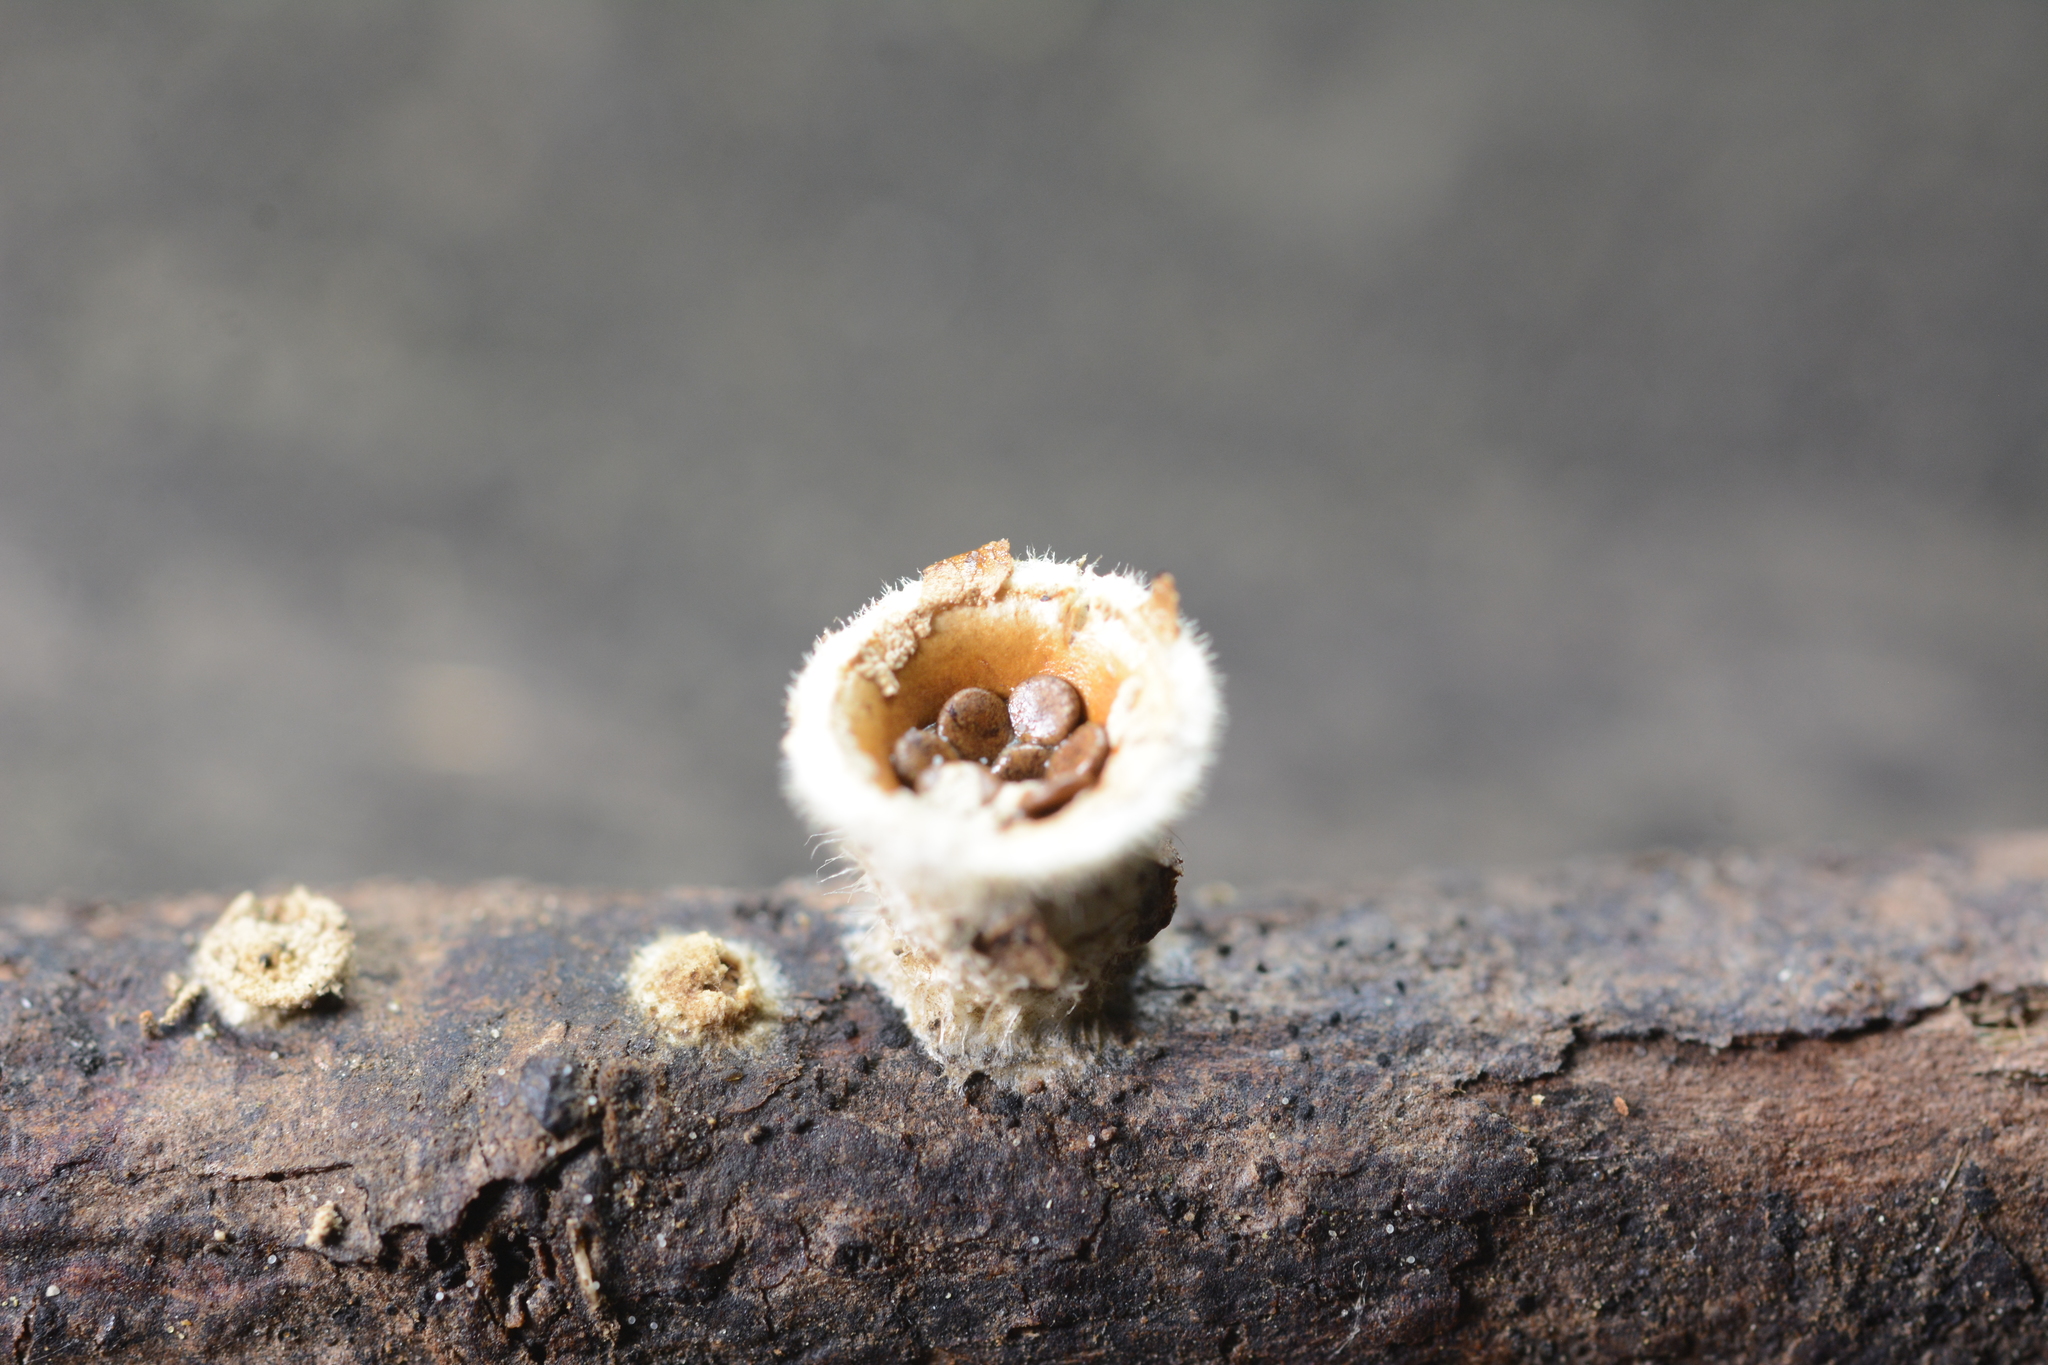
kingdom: Fungi
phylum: Basidiomycota
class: Agaricomycetes
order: Agaricales
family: Agaricaceae
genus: Nidula
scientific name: Nidula niveotomentosa
